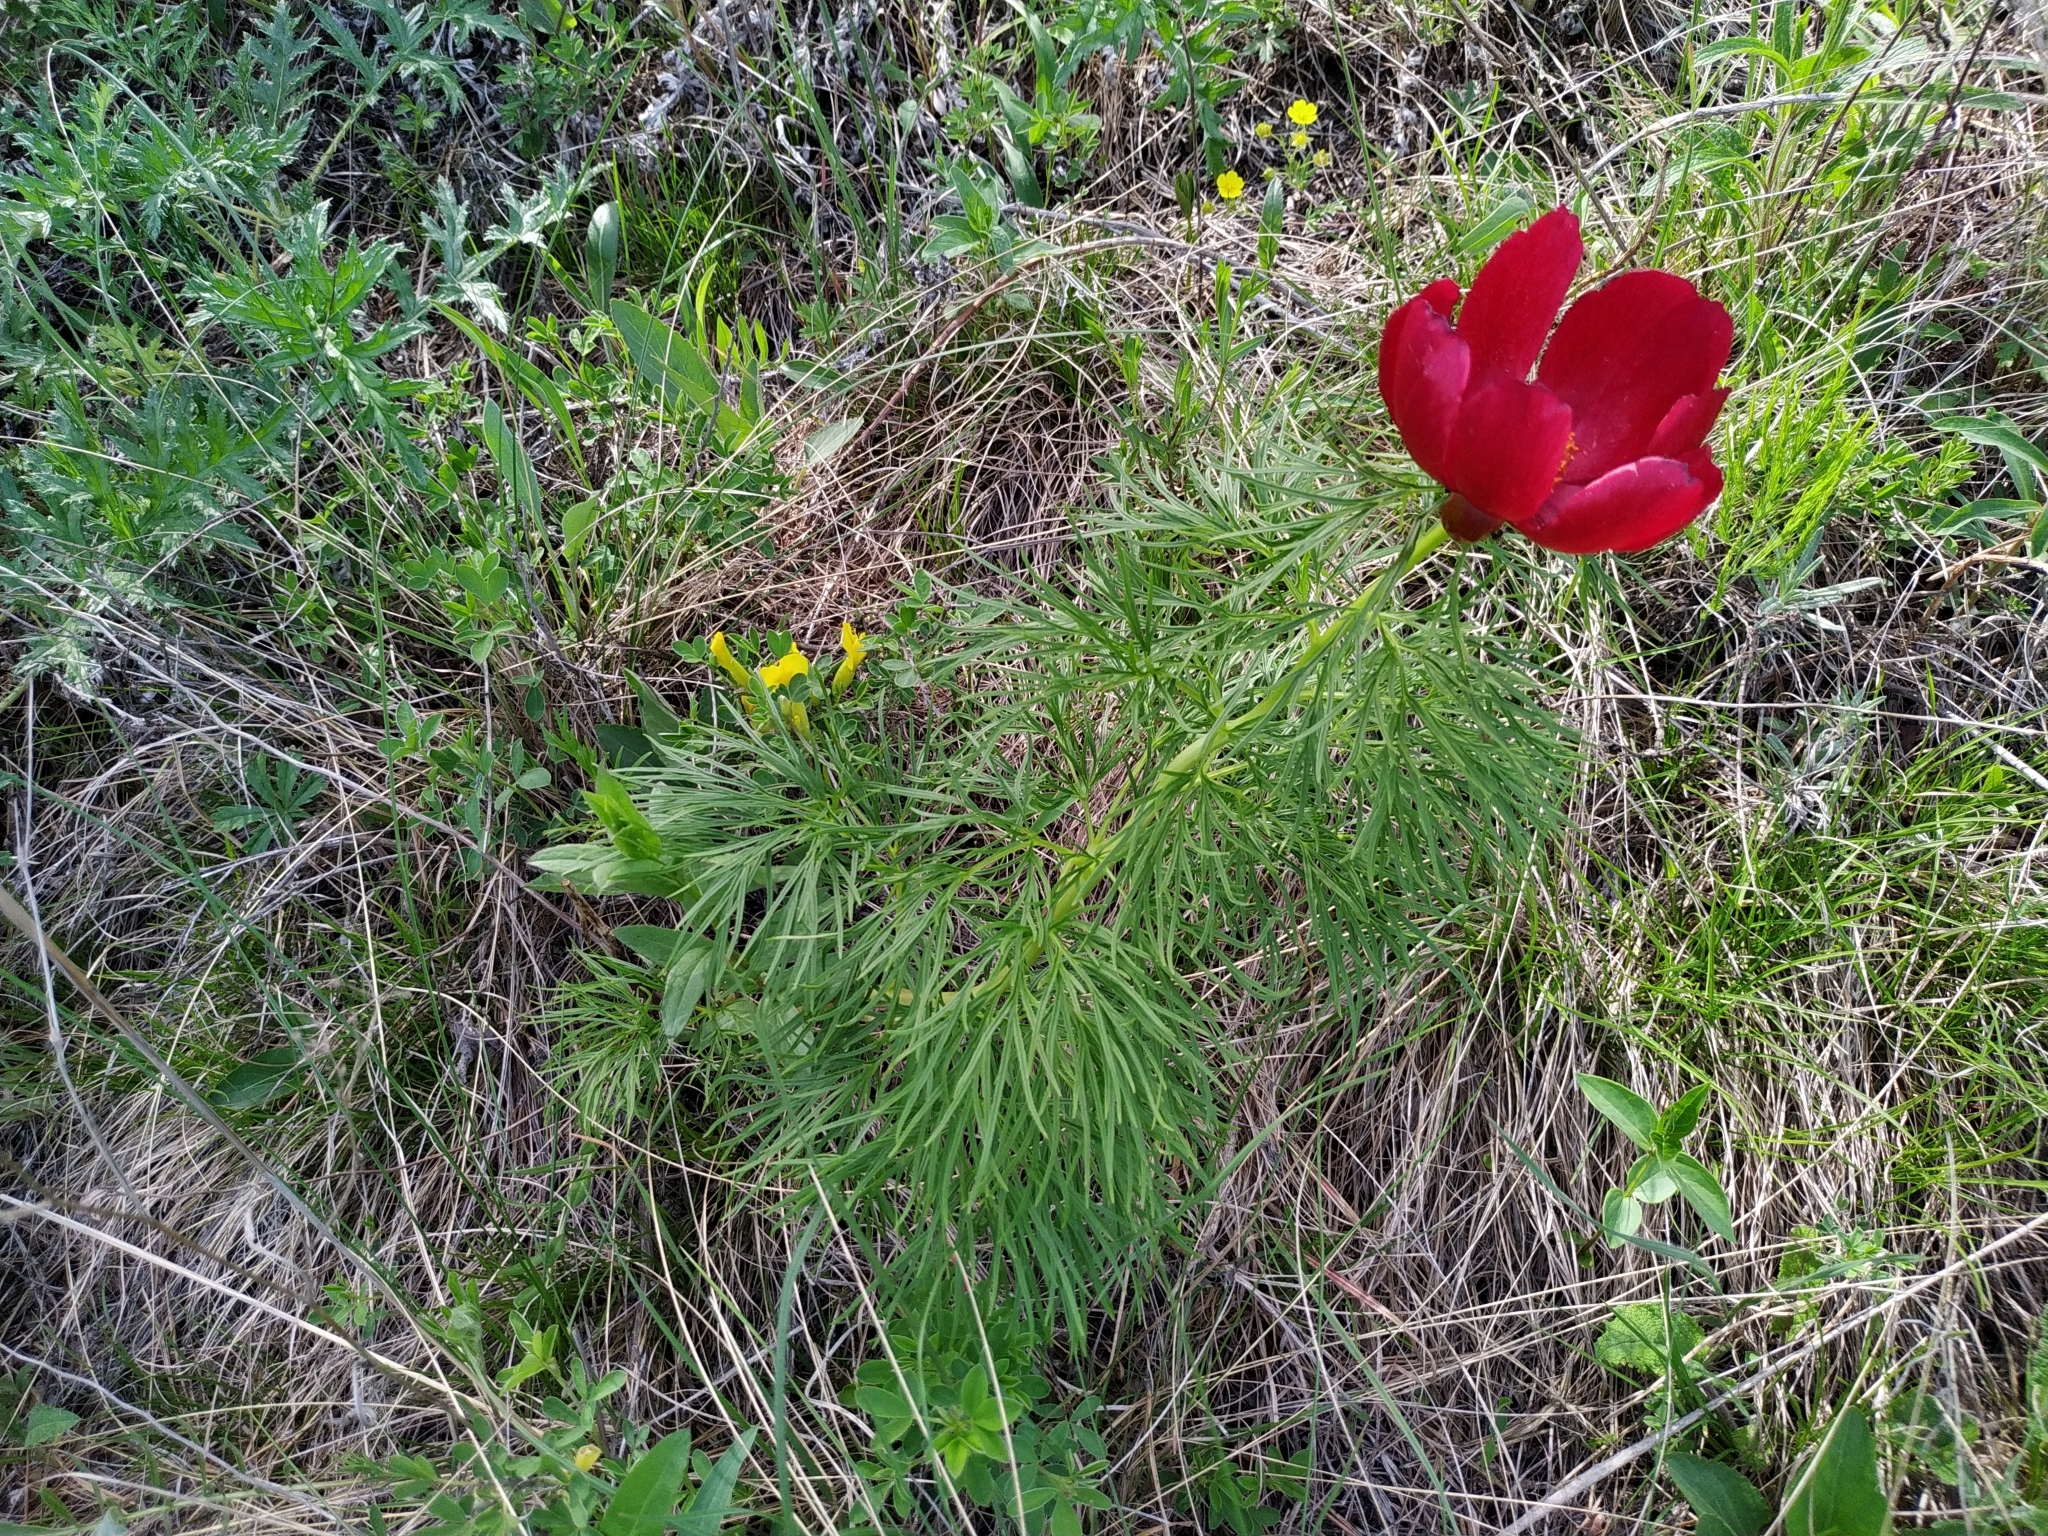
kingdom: Plantae
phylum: Tracheophyta
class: Magnoliopsida
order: Saxifragales
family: Paeoniaceae
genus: Paeonia
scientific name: Paeonia tenuifolia
